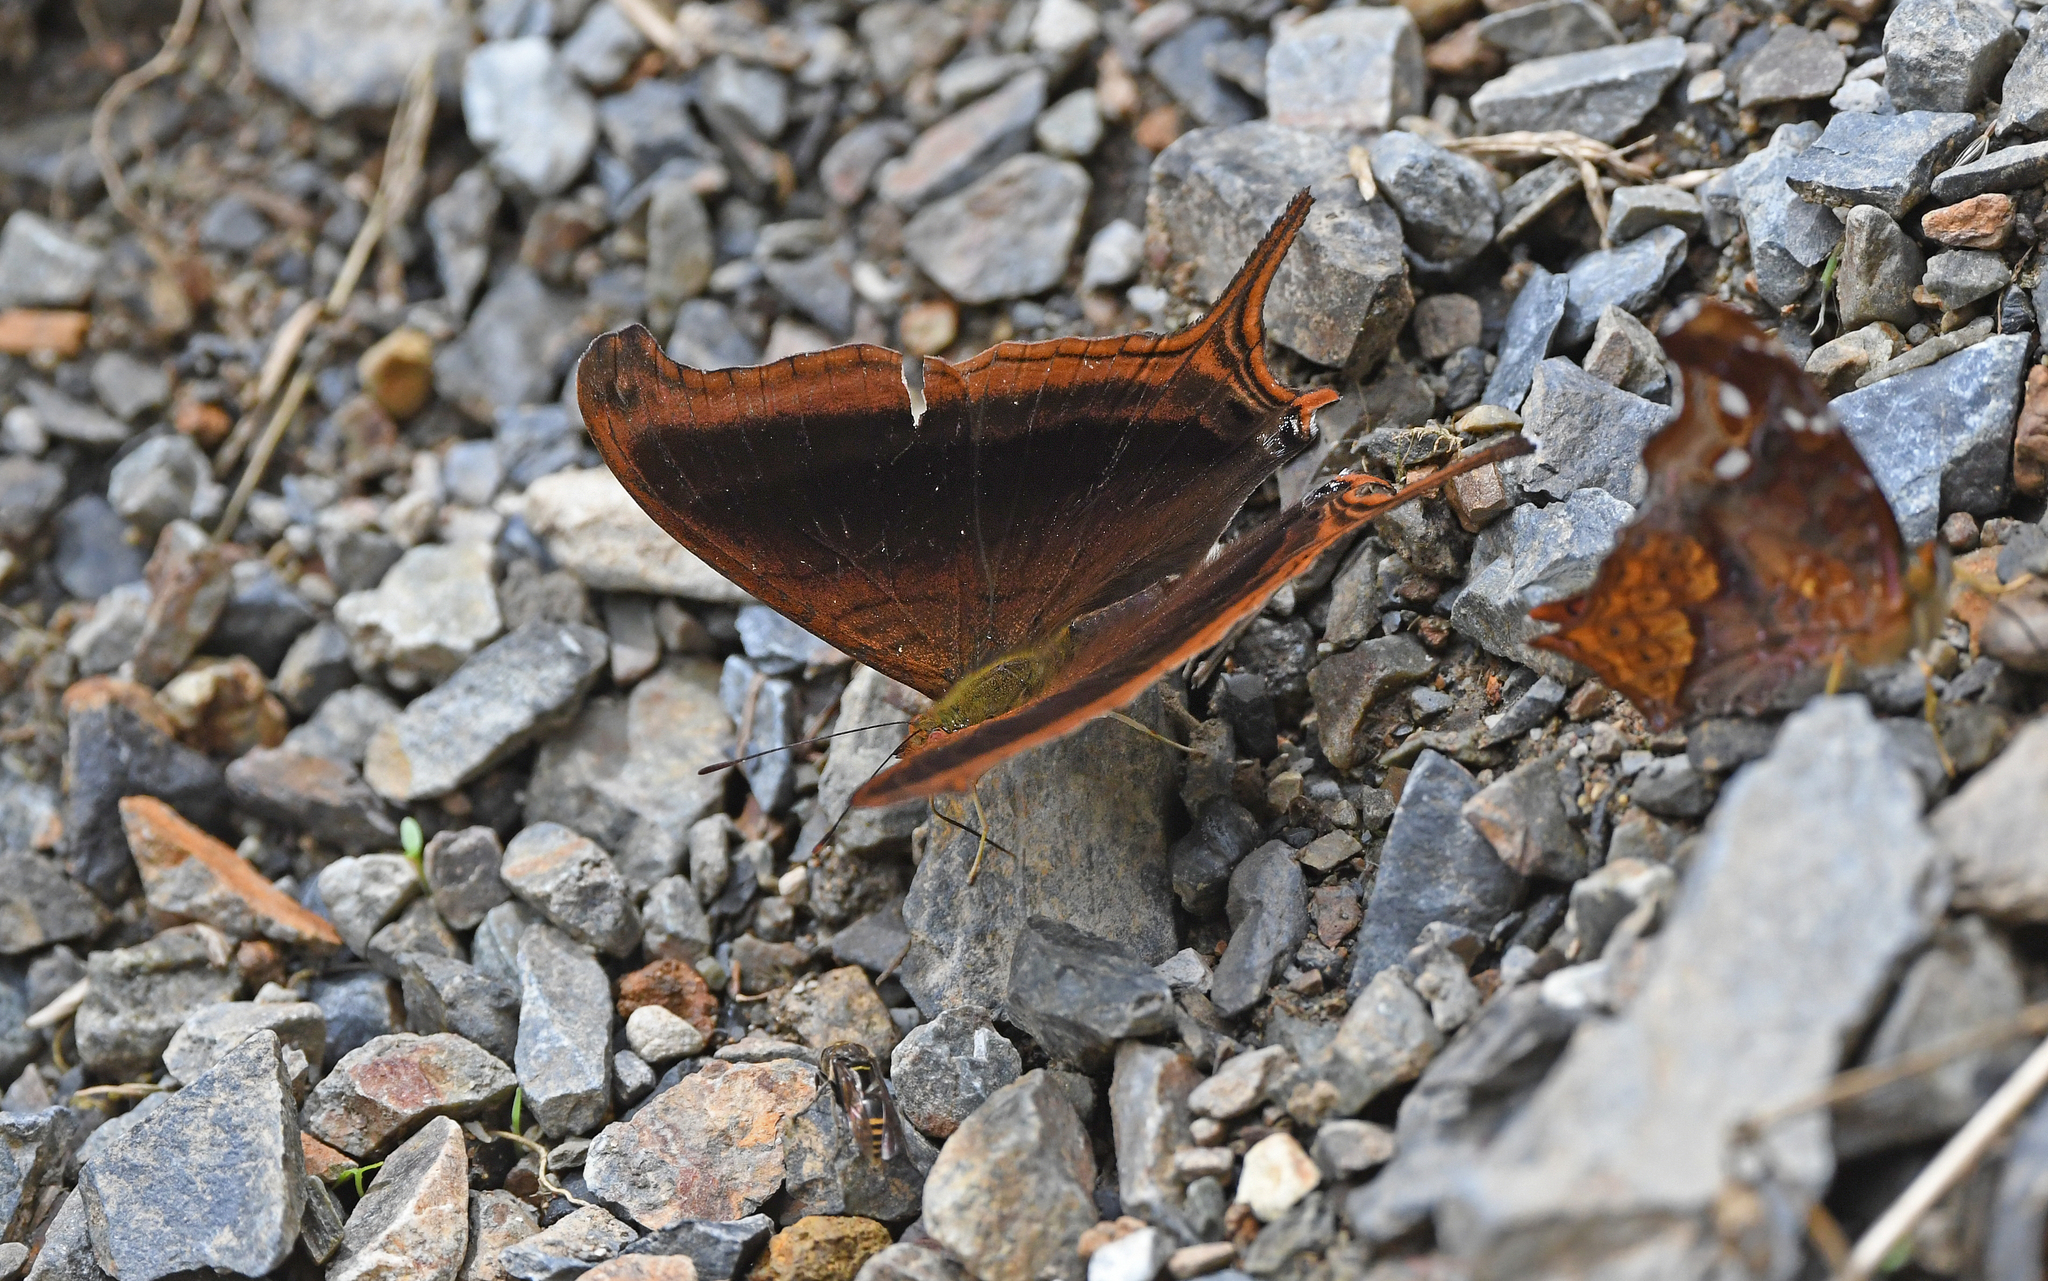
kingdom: Animalia
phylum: Arthropoda
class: Insecta
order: Lepidoptera
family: Nymphalidae
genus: Marpesia
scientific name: Marpesia zerynthia
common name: Waiter daggerwing
